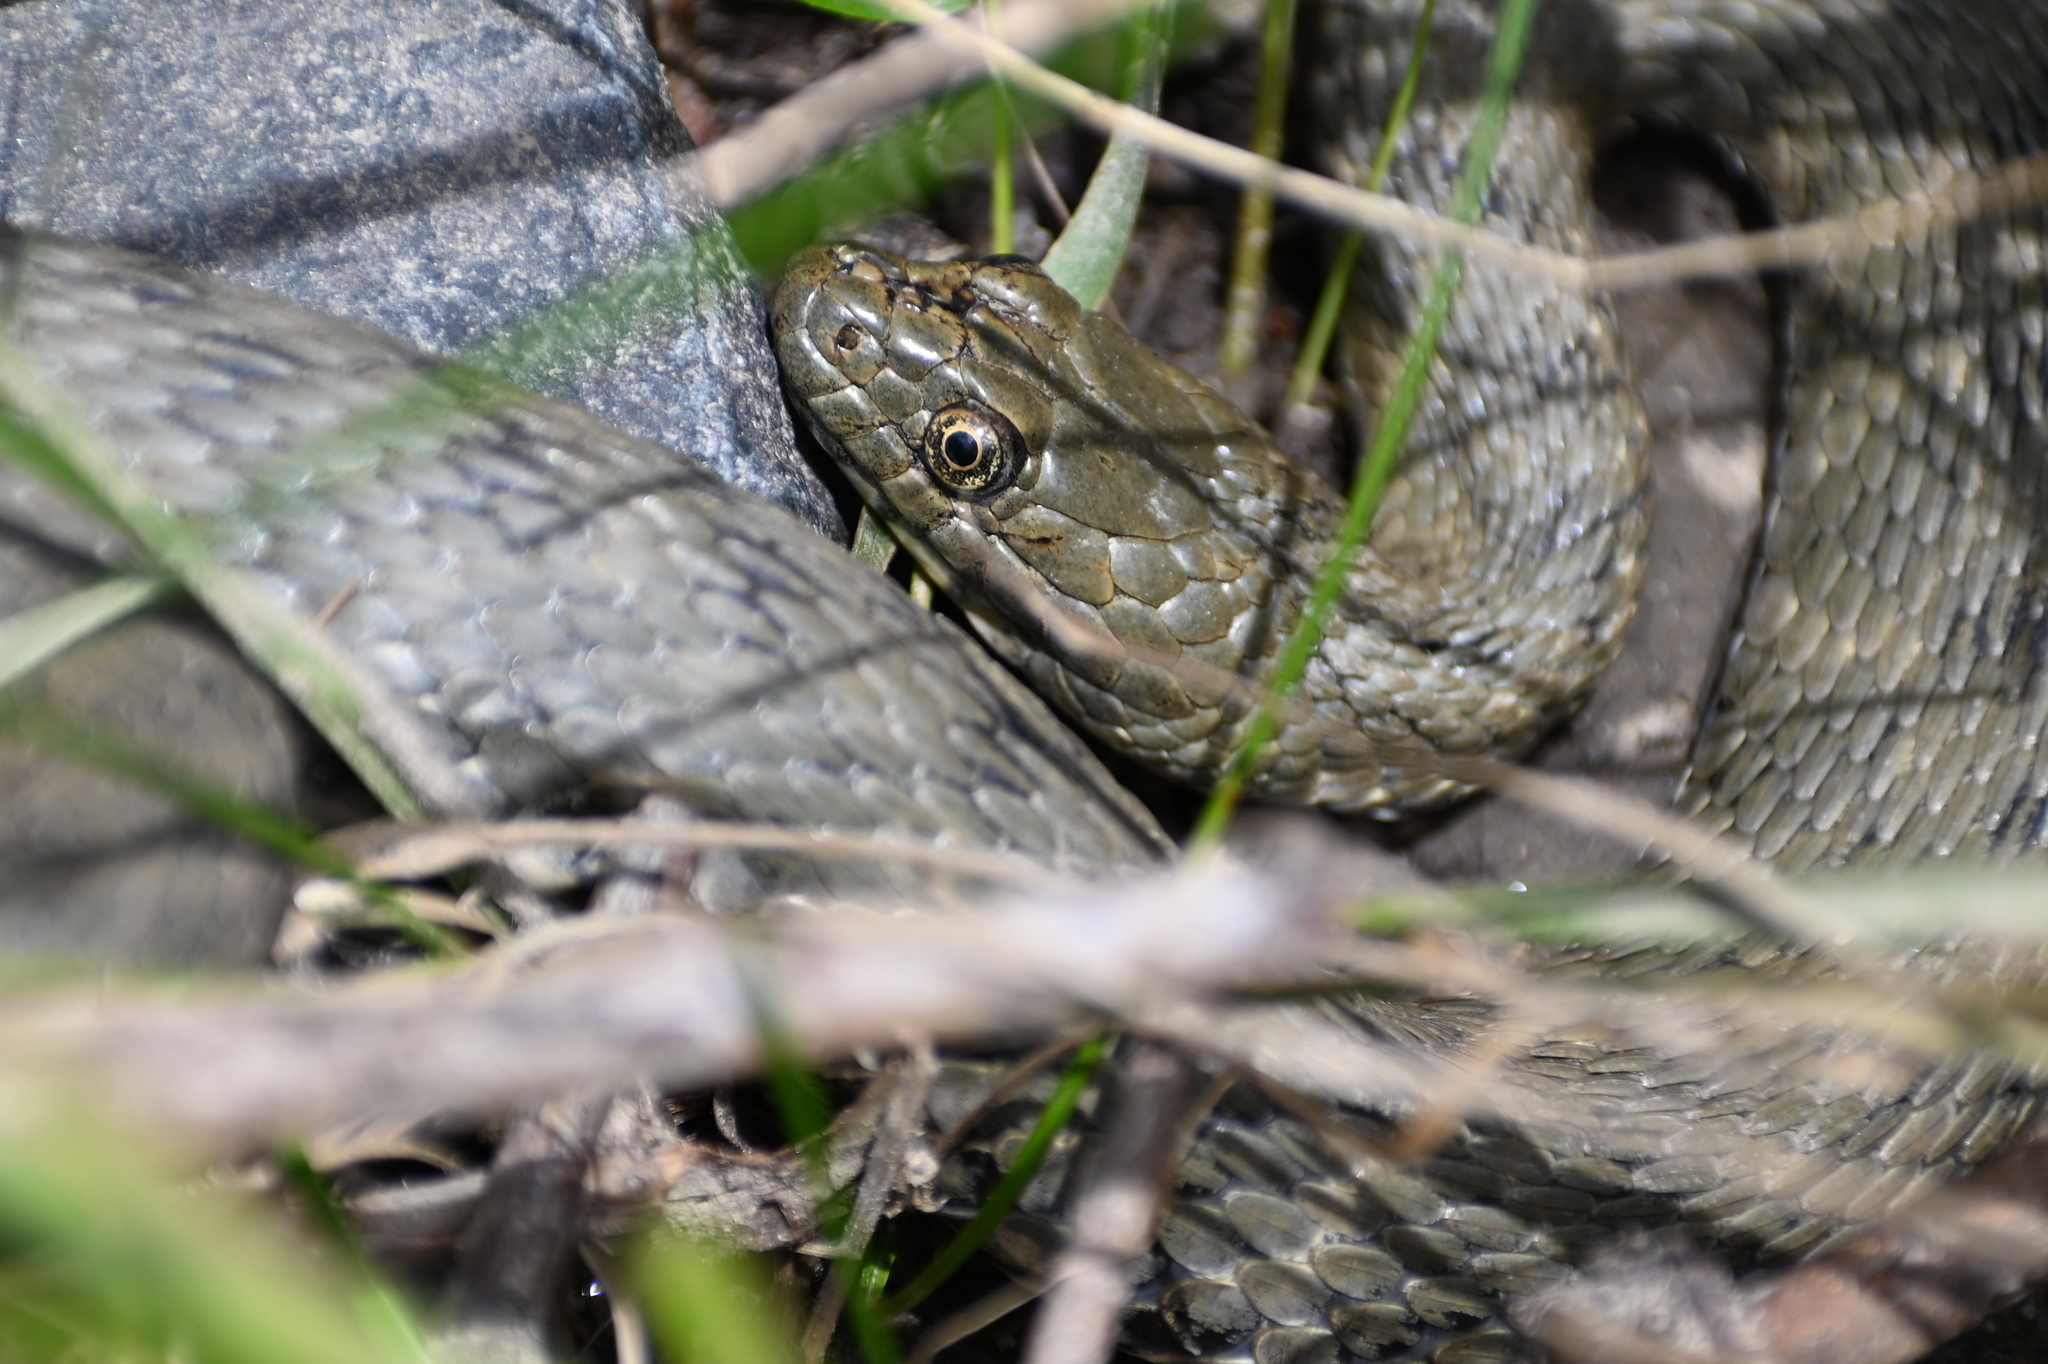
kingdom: Animalia
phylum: Chordata
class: Squamata
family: Colubridae
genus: Natrix
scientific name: Natrix tessellata
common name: Dice snake
